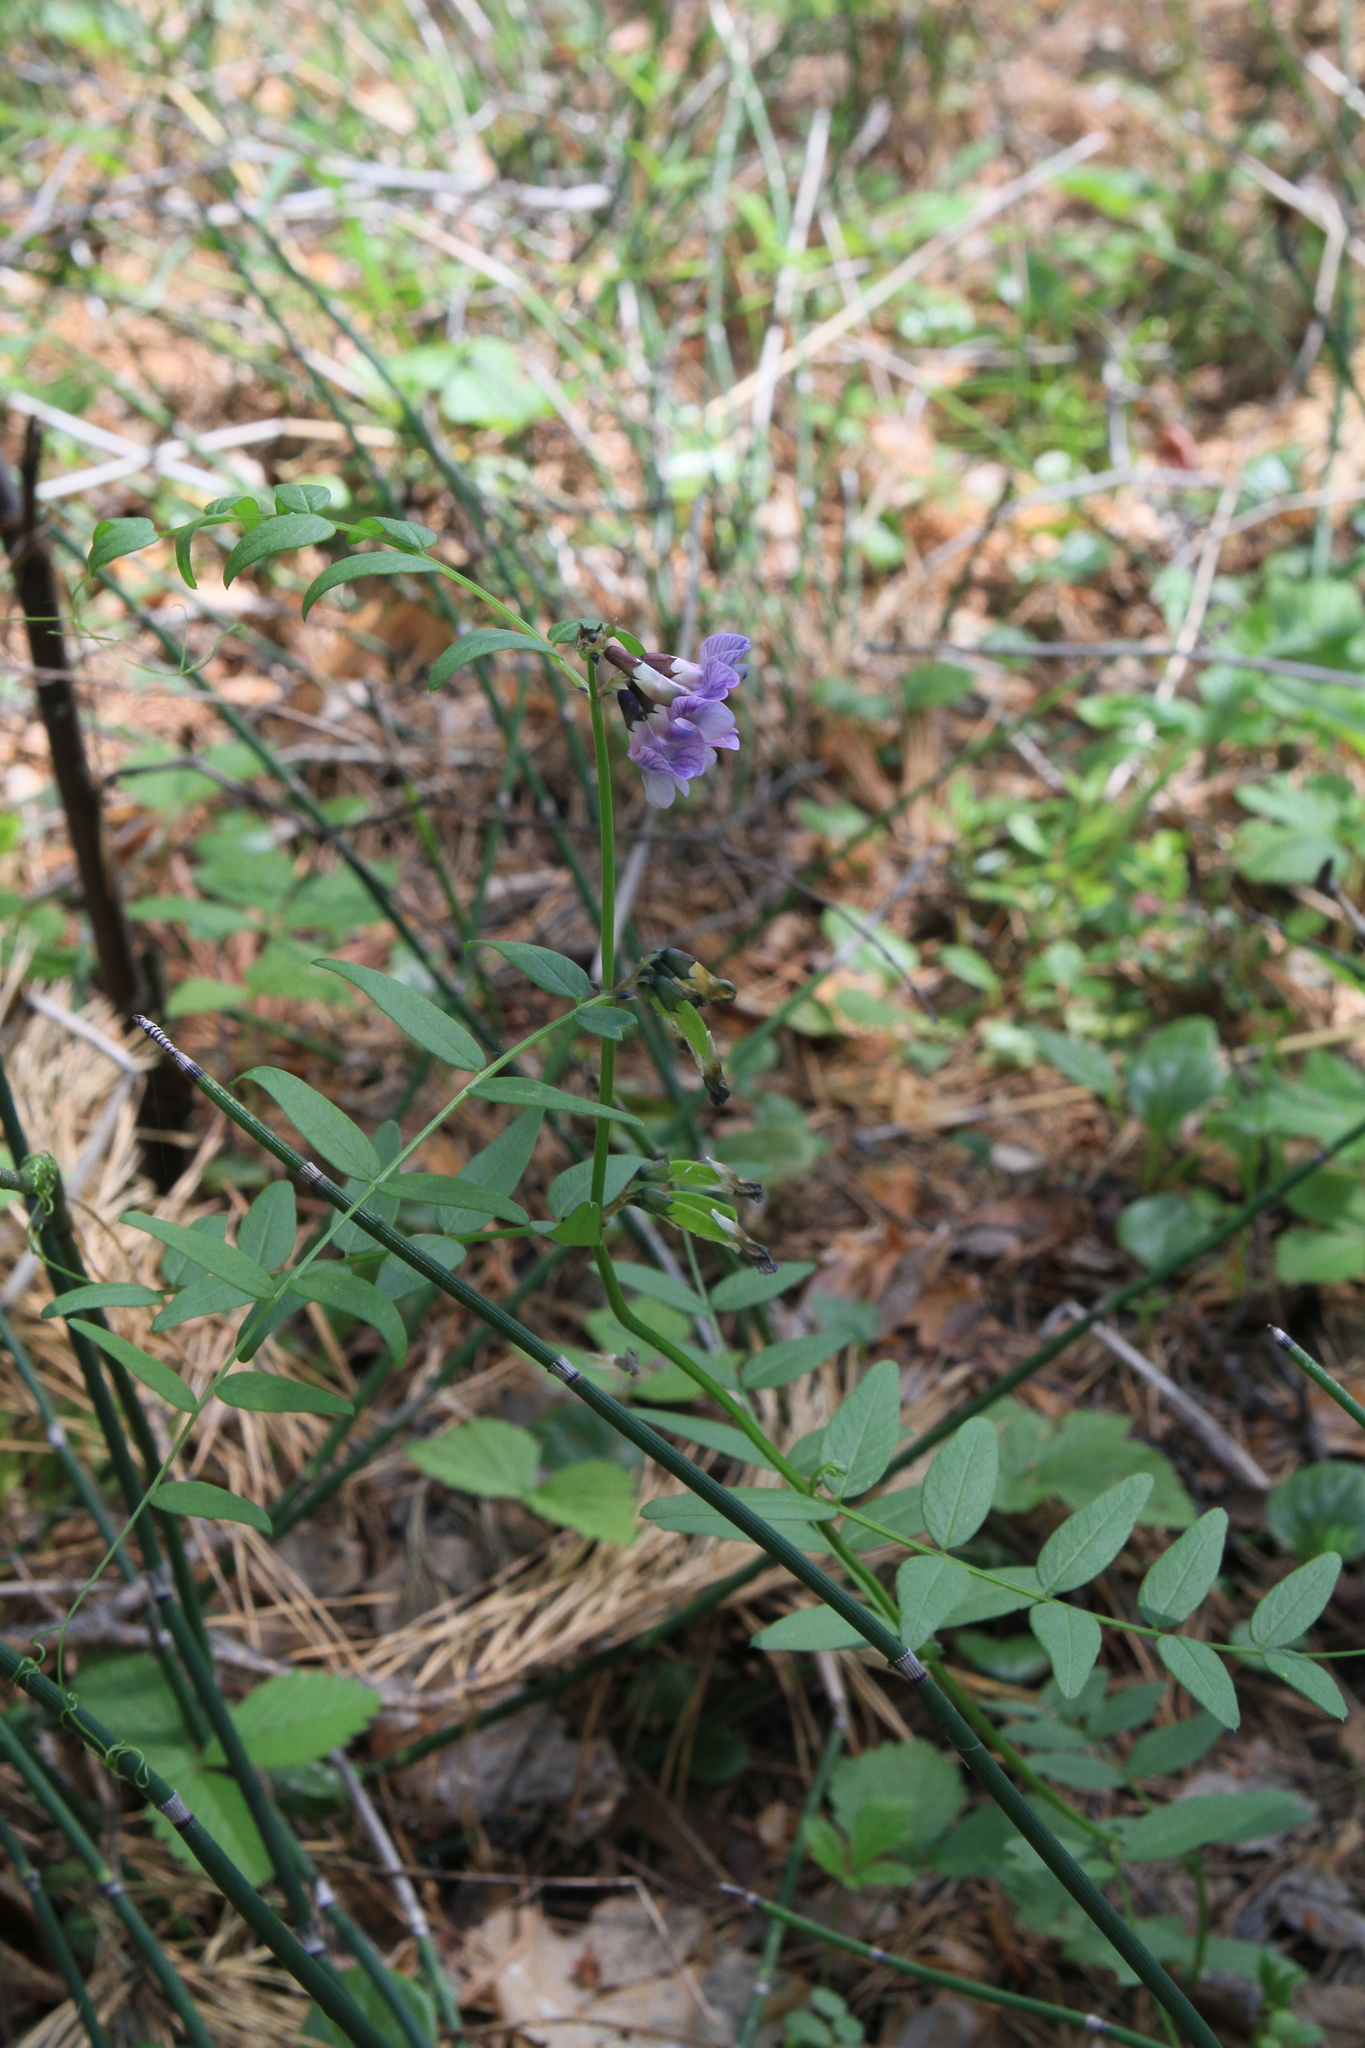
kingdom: Plantae
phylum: Tracheophyta
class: Magnoliopsida
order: Fabales
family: Fabaceae
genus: Vicia
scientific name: Vicia sepium
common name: Bush vetch
